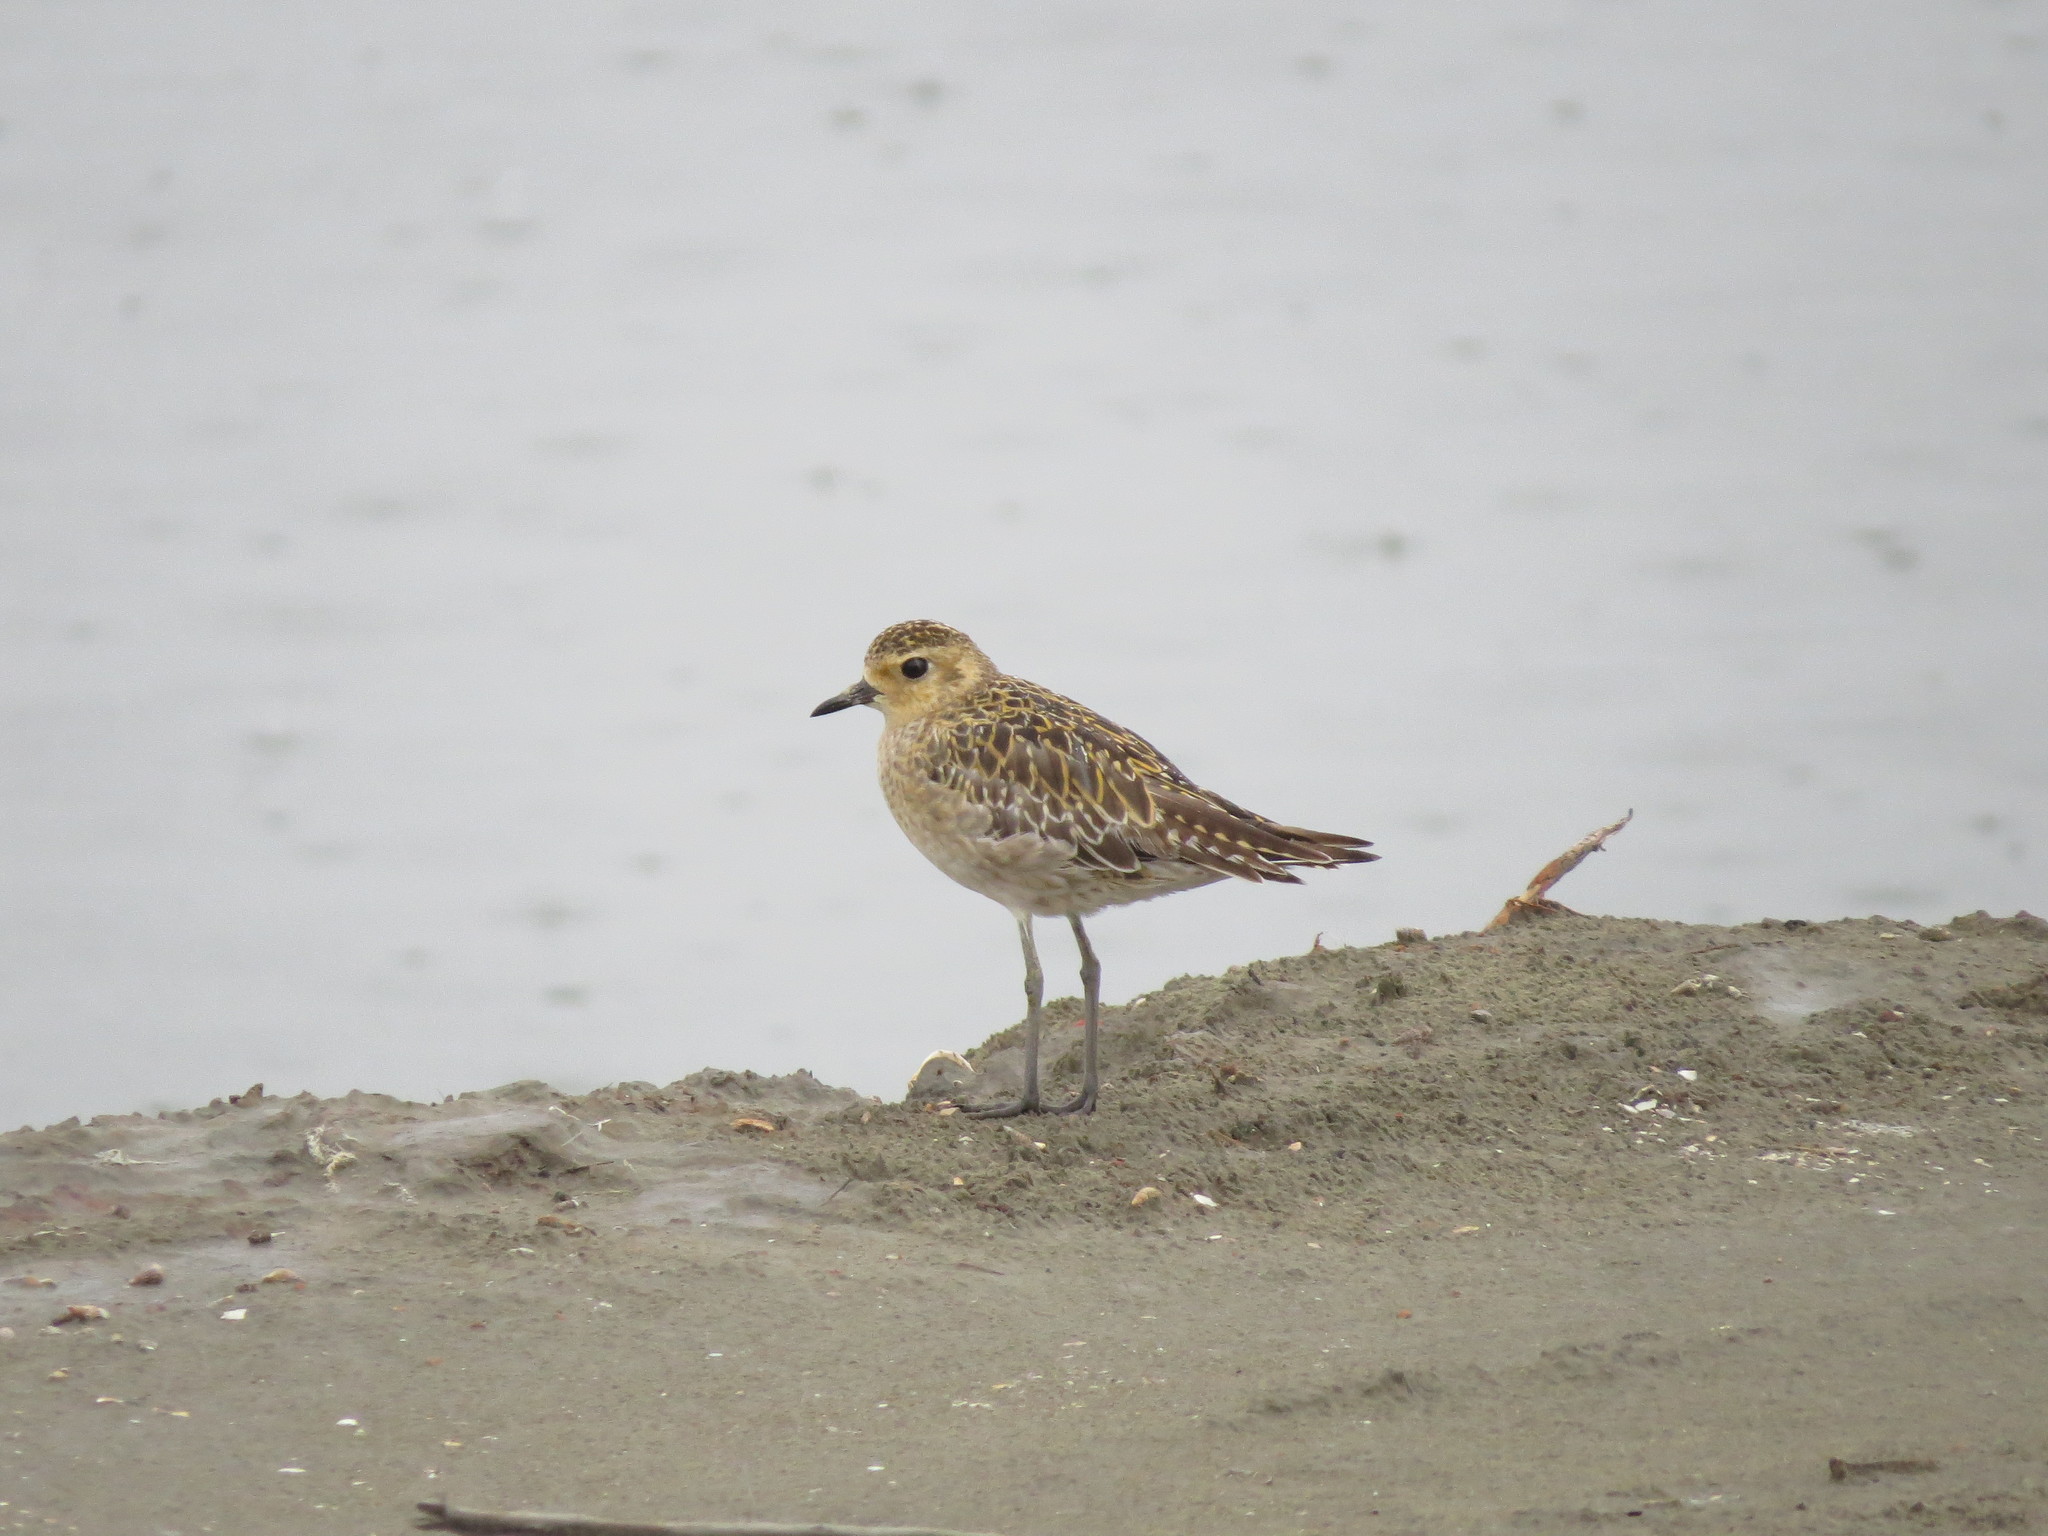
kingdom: Animalia
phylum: Chordata
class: Aves
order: Charadriiformes
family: Charadriidae
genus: Pluvialis
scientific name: Pluvialis fulva
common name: Pacific golden plover
